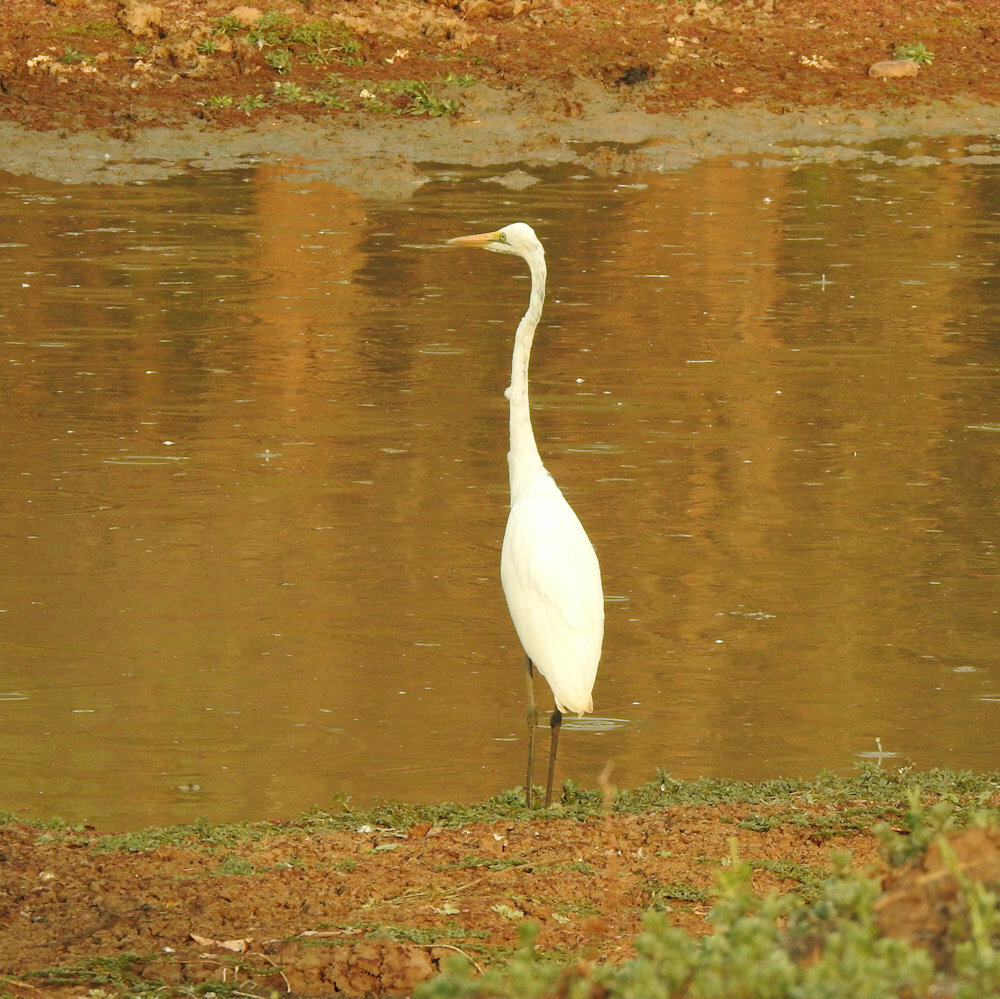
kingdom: Animalia
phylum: Chordata
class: Aves
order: Pelecaniformes
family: Ardeidae
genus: Ardea
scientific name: Ardea alba
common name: Great egret
